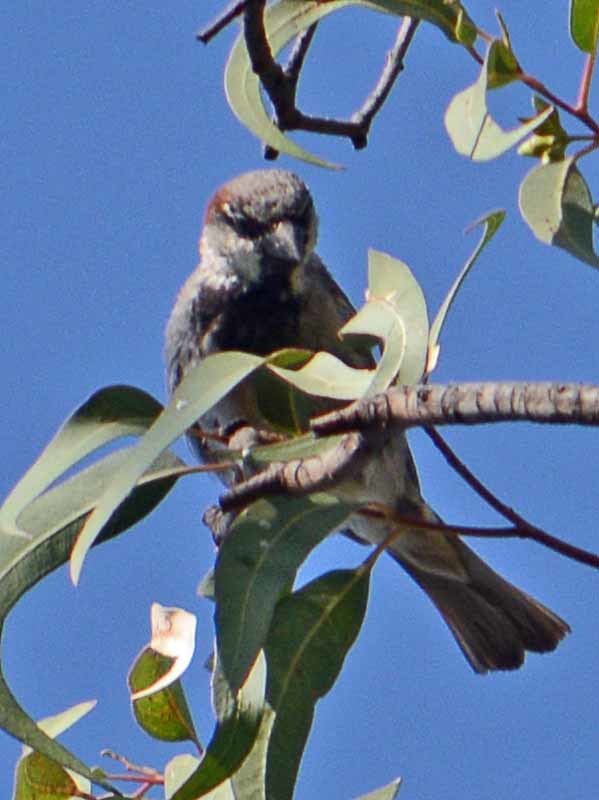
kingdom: Animalia
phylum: Chordata
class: Aves
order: Passeriformes
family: Passeridae
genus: Passer
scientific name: Passer domesticus
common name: House sparrow
